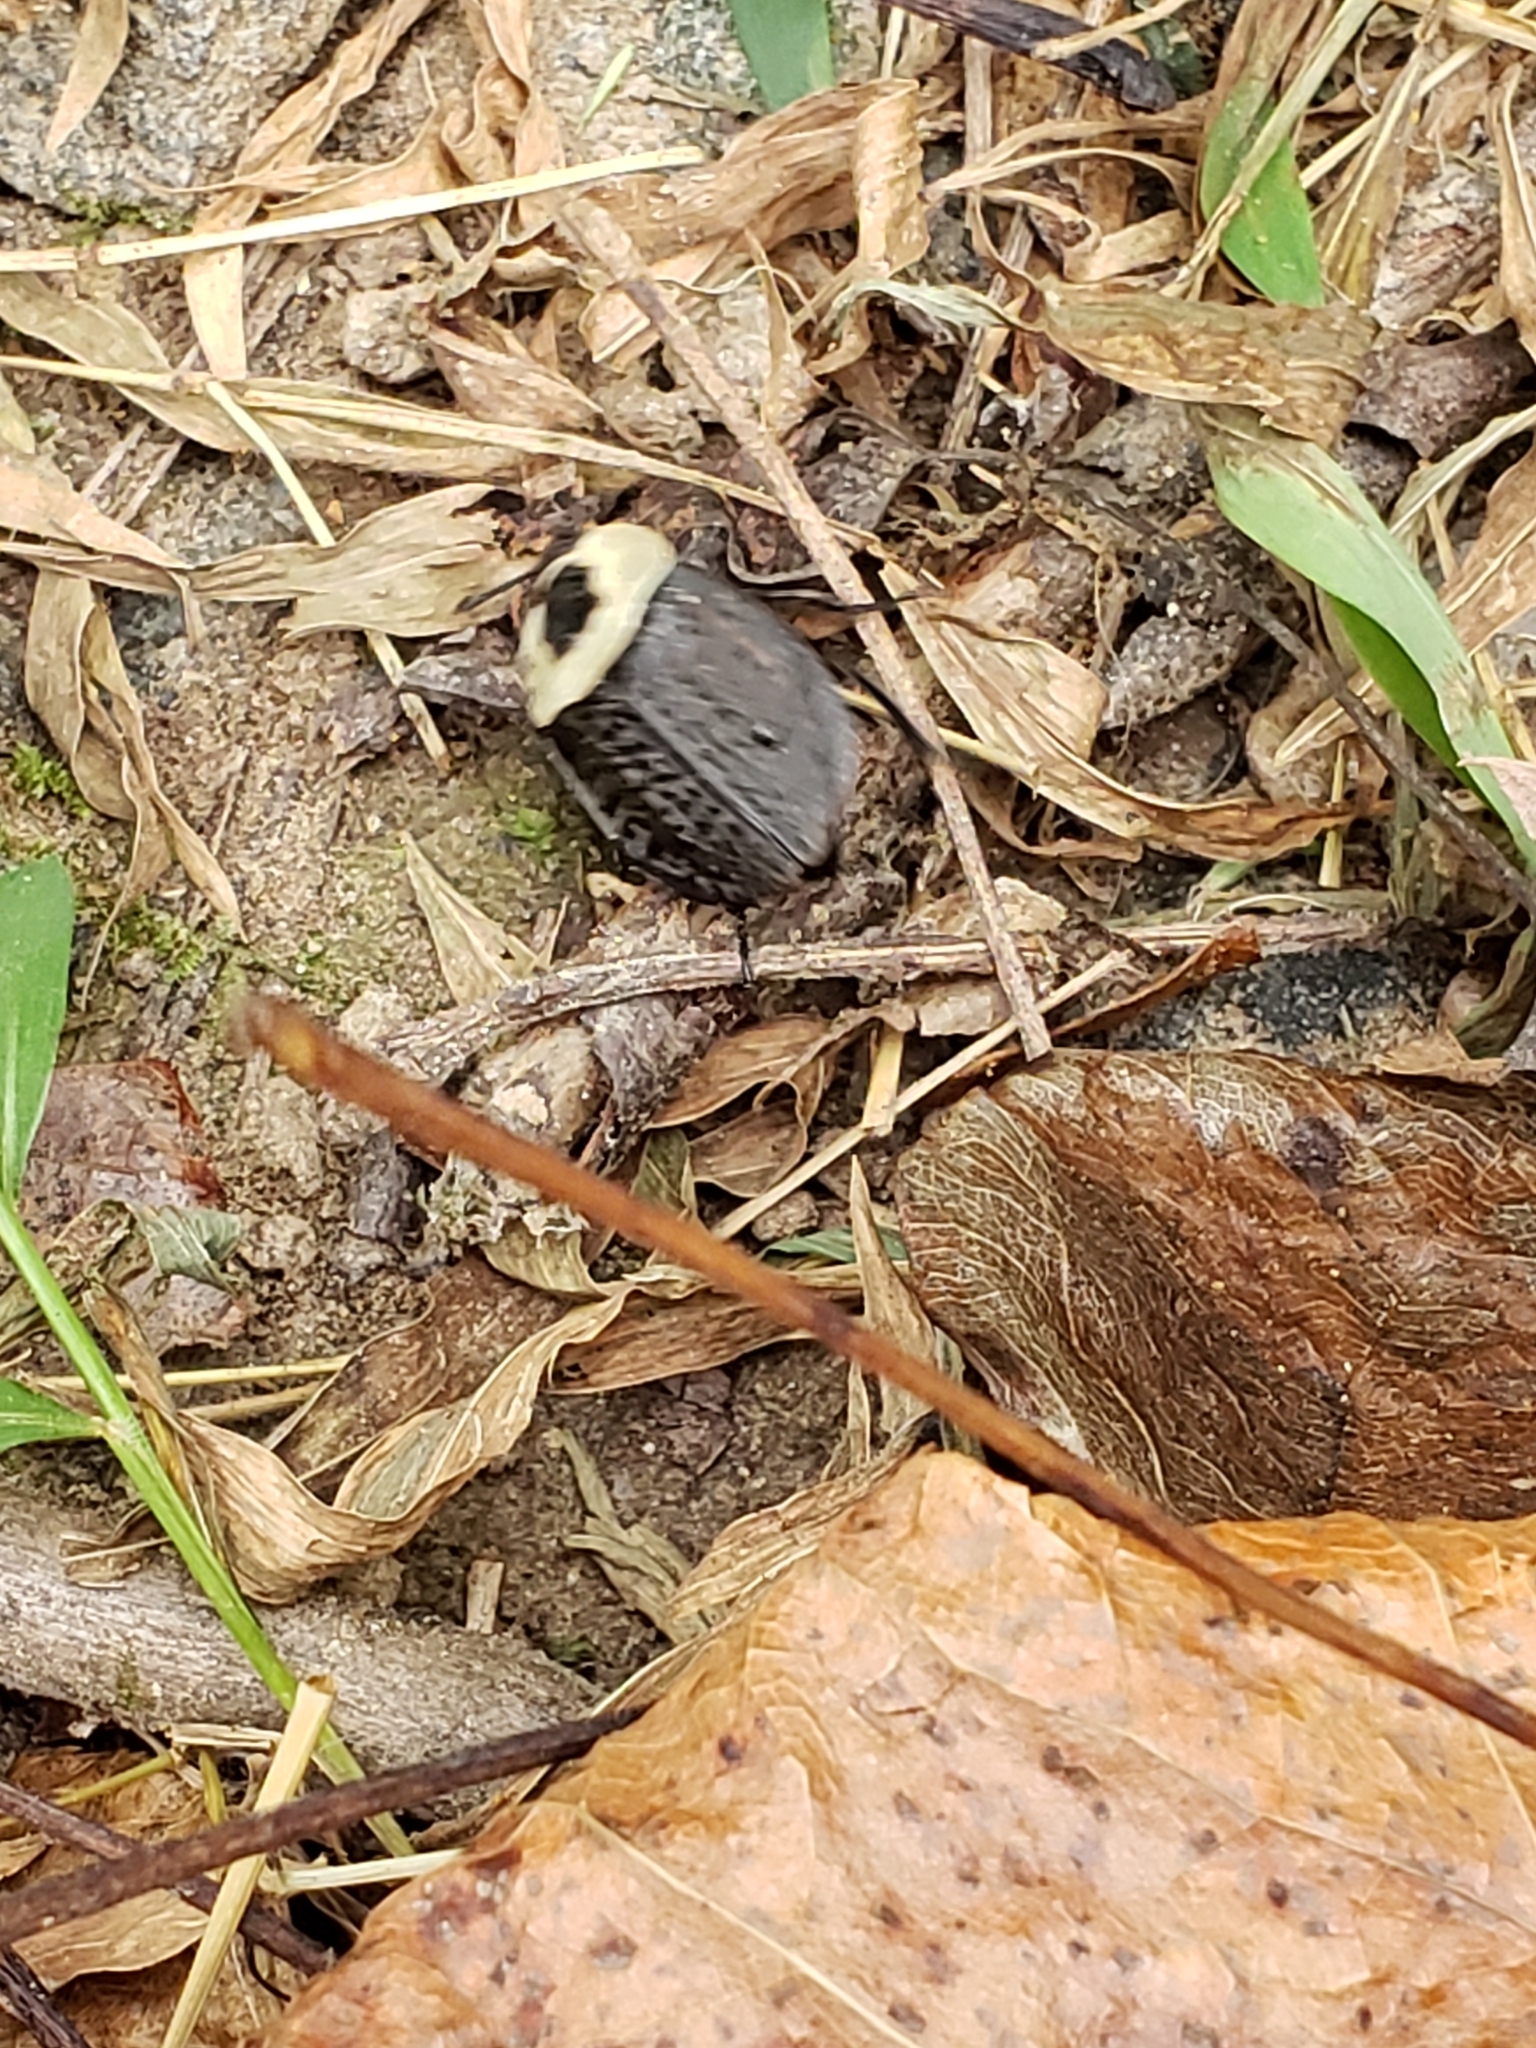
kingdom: Animalia
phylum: Arthropoda
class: Insecta
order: Coleoptera
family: Staphylinidae
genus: Necrophila
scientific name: Necrophila americana
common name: American carrion beetle
